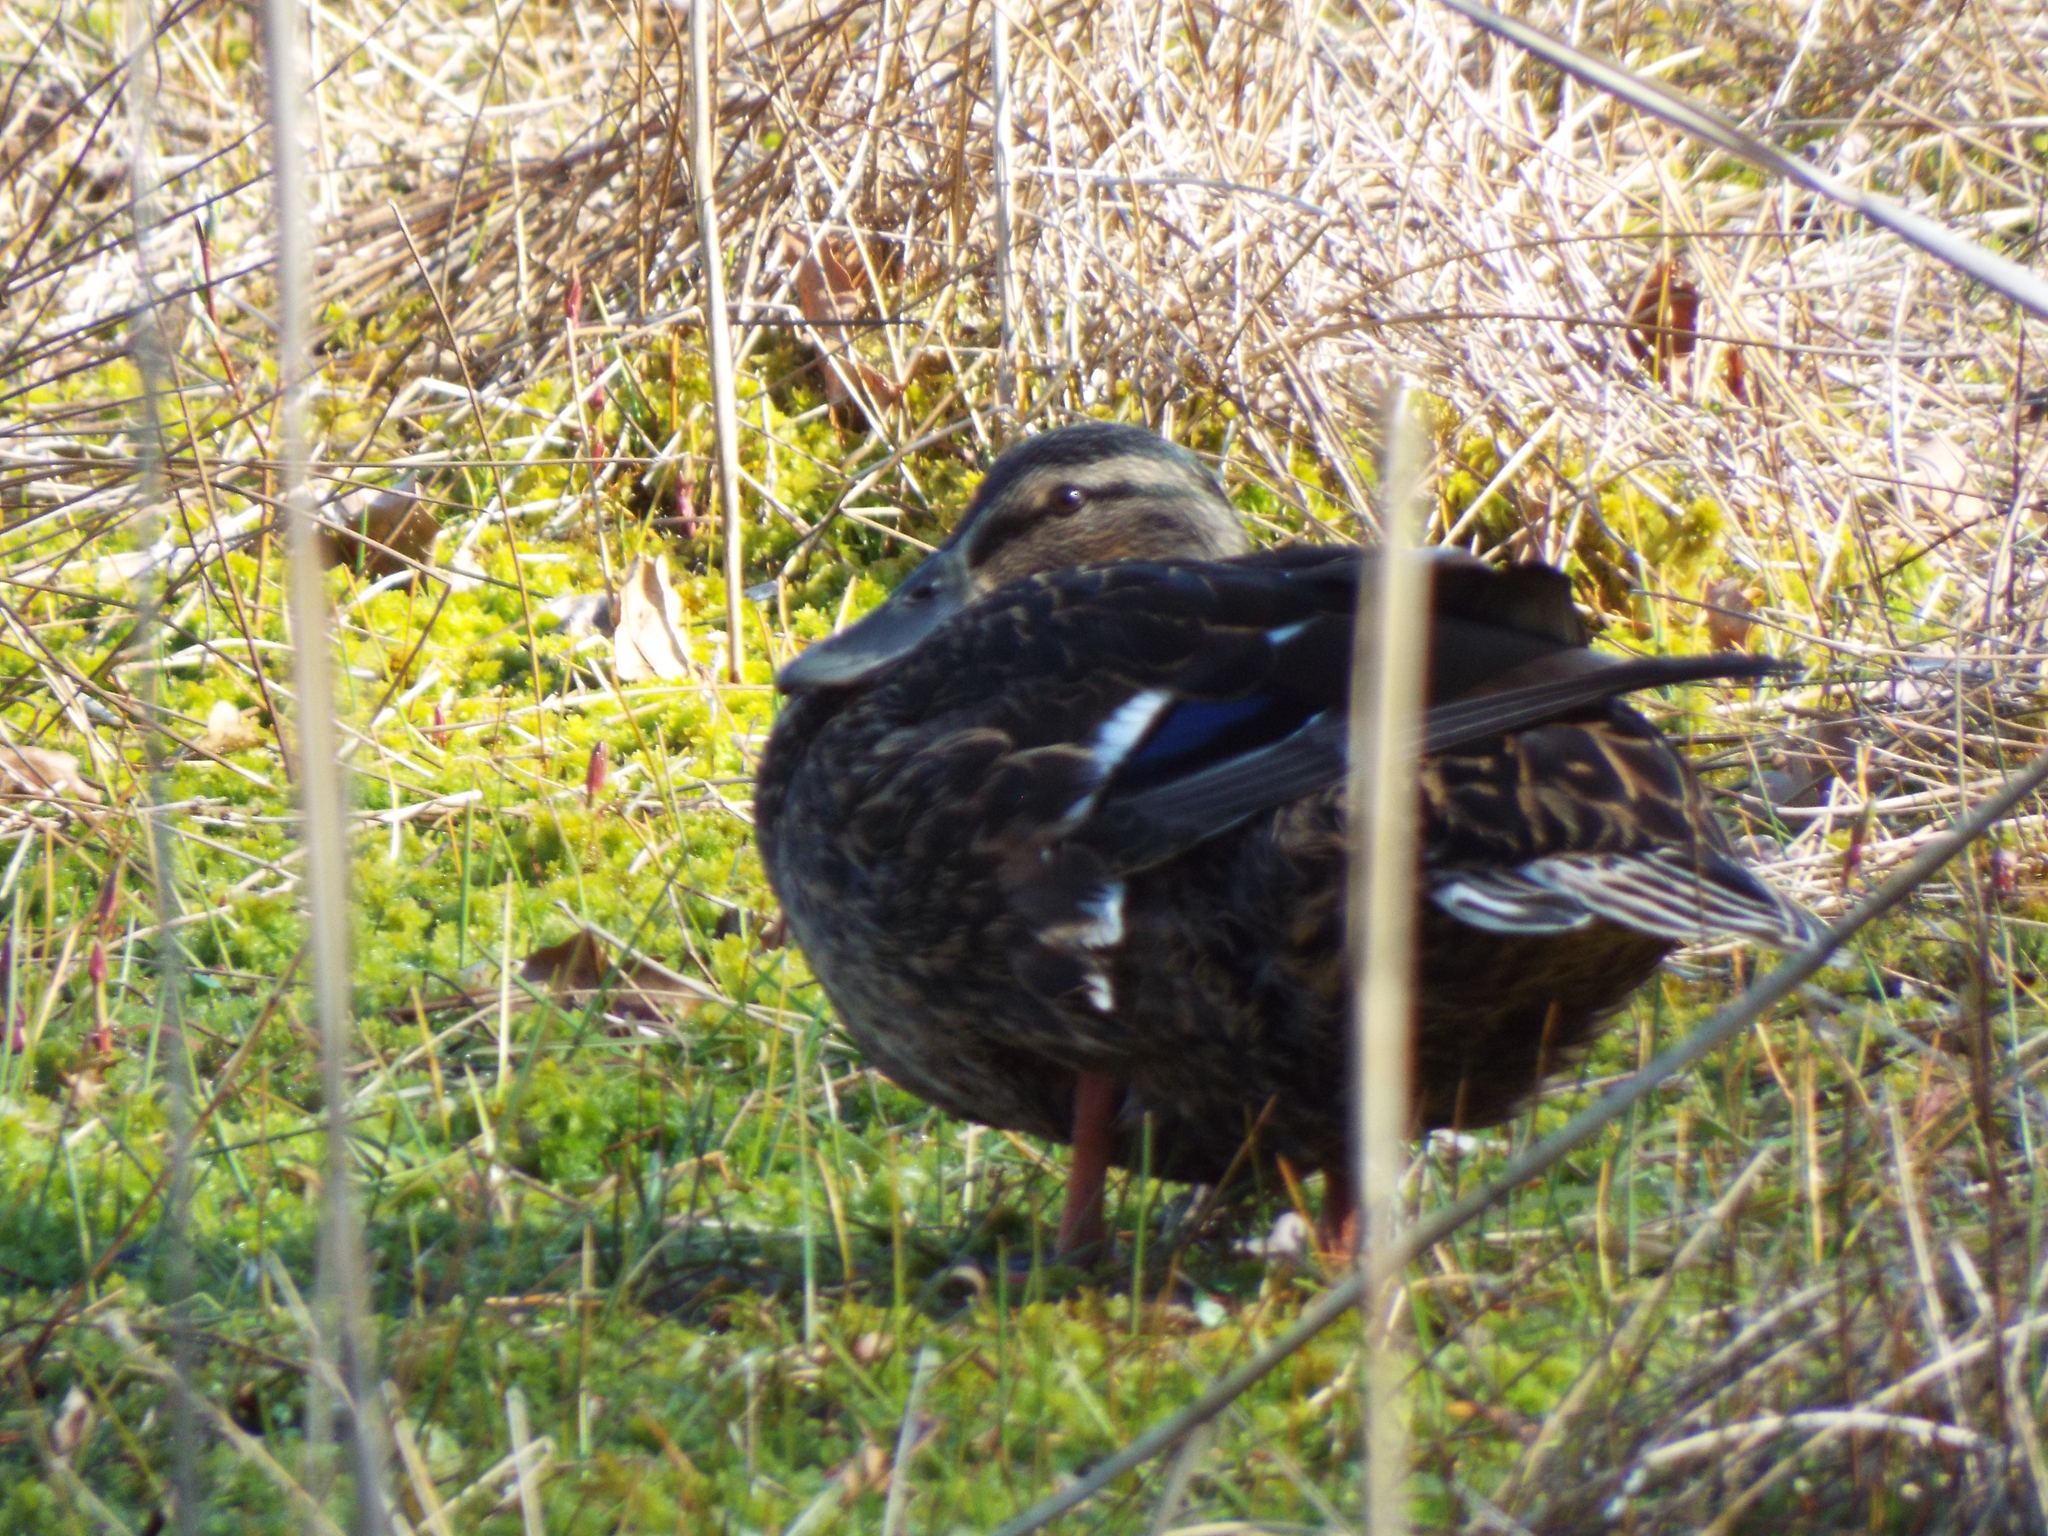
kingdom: Animalia
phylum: Chordata
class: Aves
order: Anseriformes
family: Anatidae
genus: Anas
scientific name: Anas platyrhynchos
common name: Mallard
